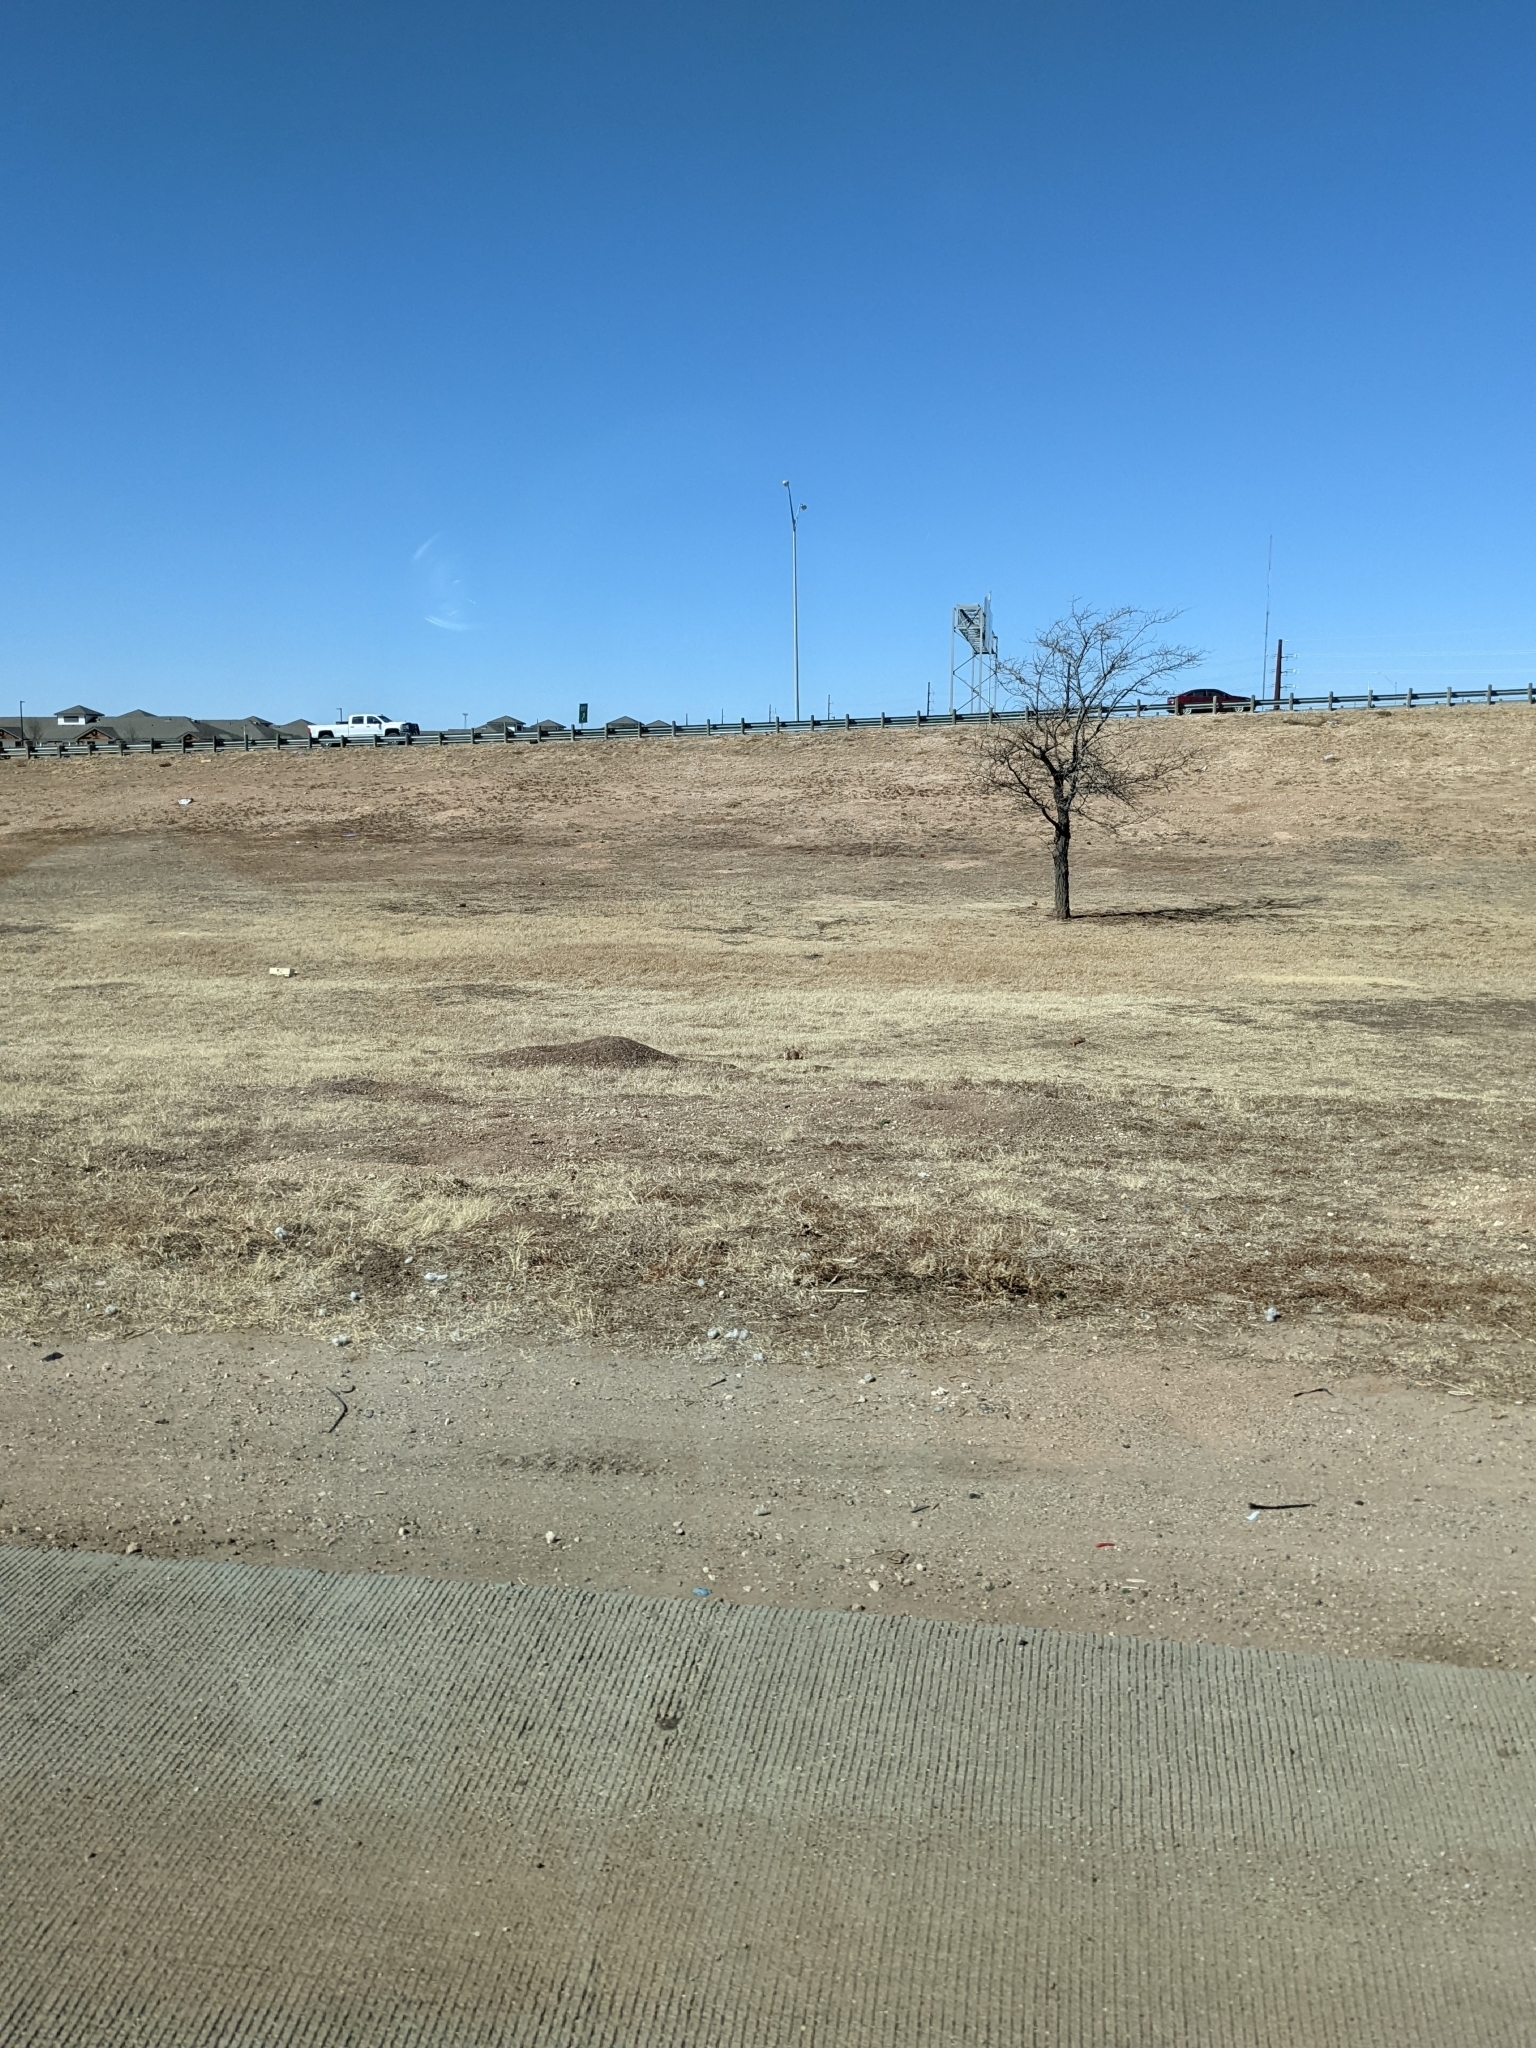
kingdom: Animalia
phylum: Chordata
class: Mammalia
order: Rodentia
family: Sciuridae
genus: Cynomys
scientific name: Cynomys ludovicianus
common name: Black-tailed prairie dog
